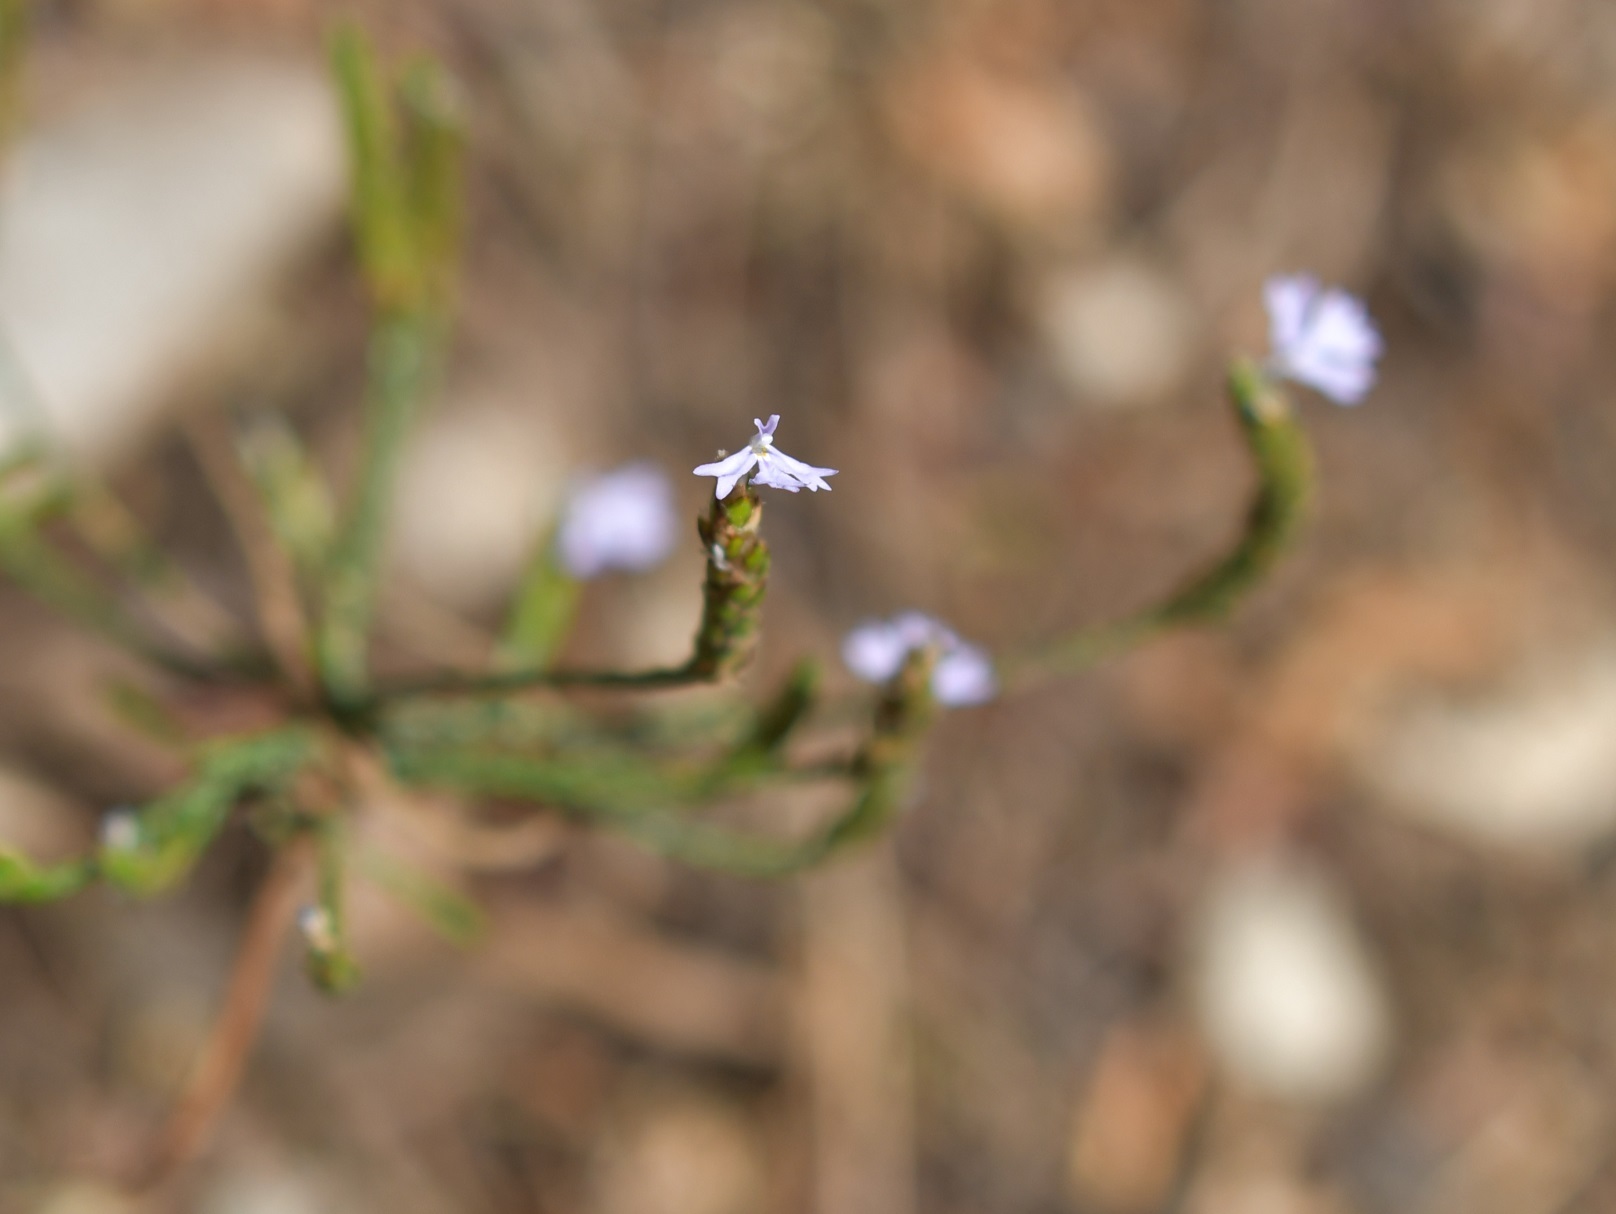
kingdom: Plantae
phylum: Tracheophyta
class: Magnoliopsida
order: Lamiales
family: Acanthaceae
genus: Elytraria
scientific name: Elytraria imbricata
